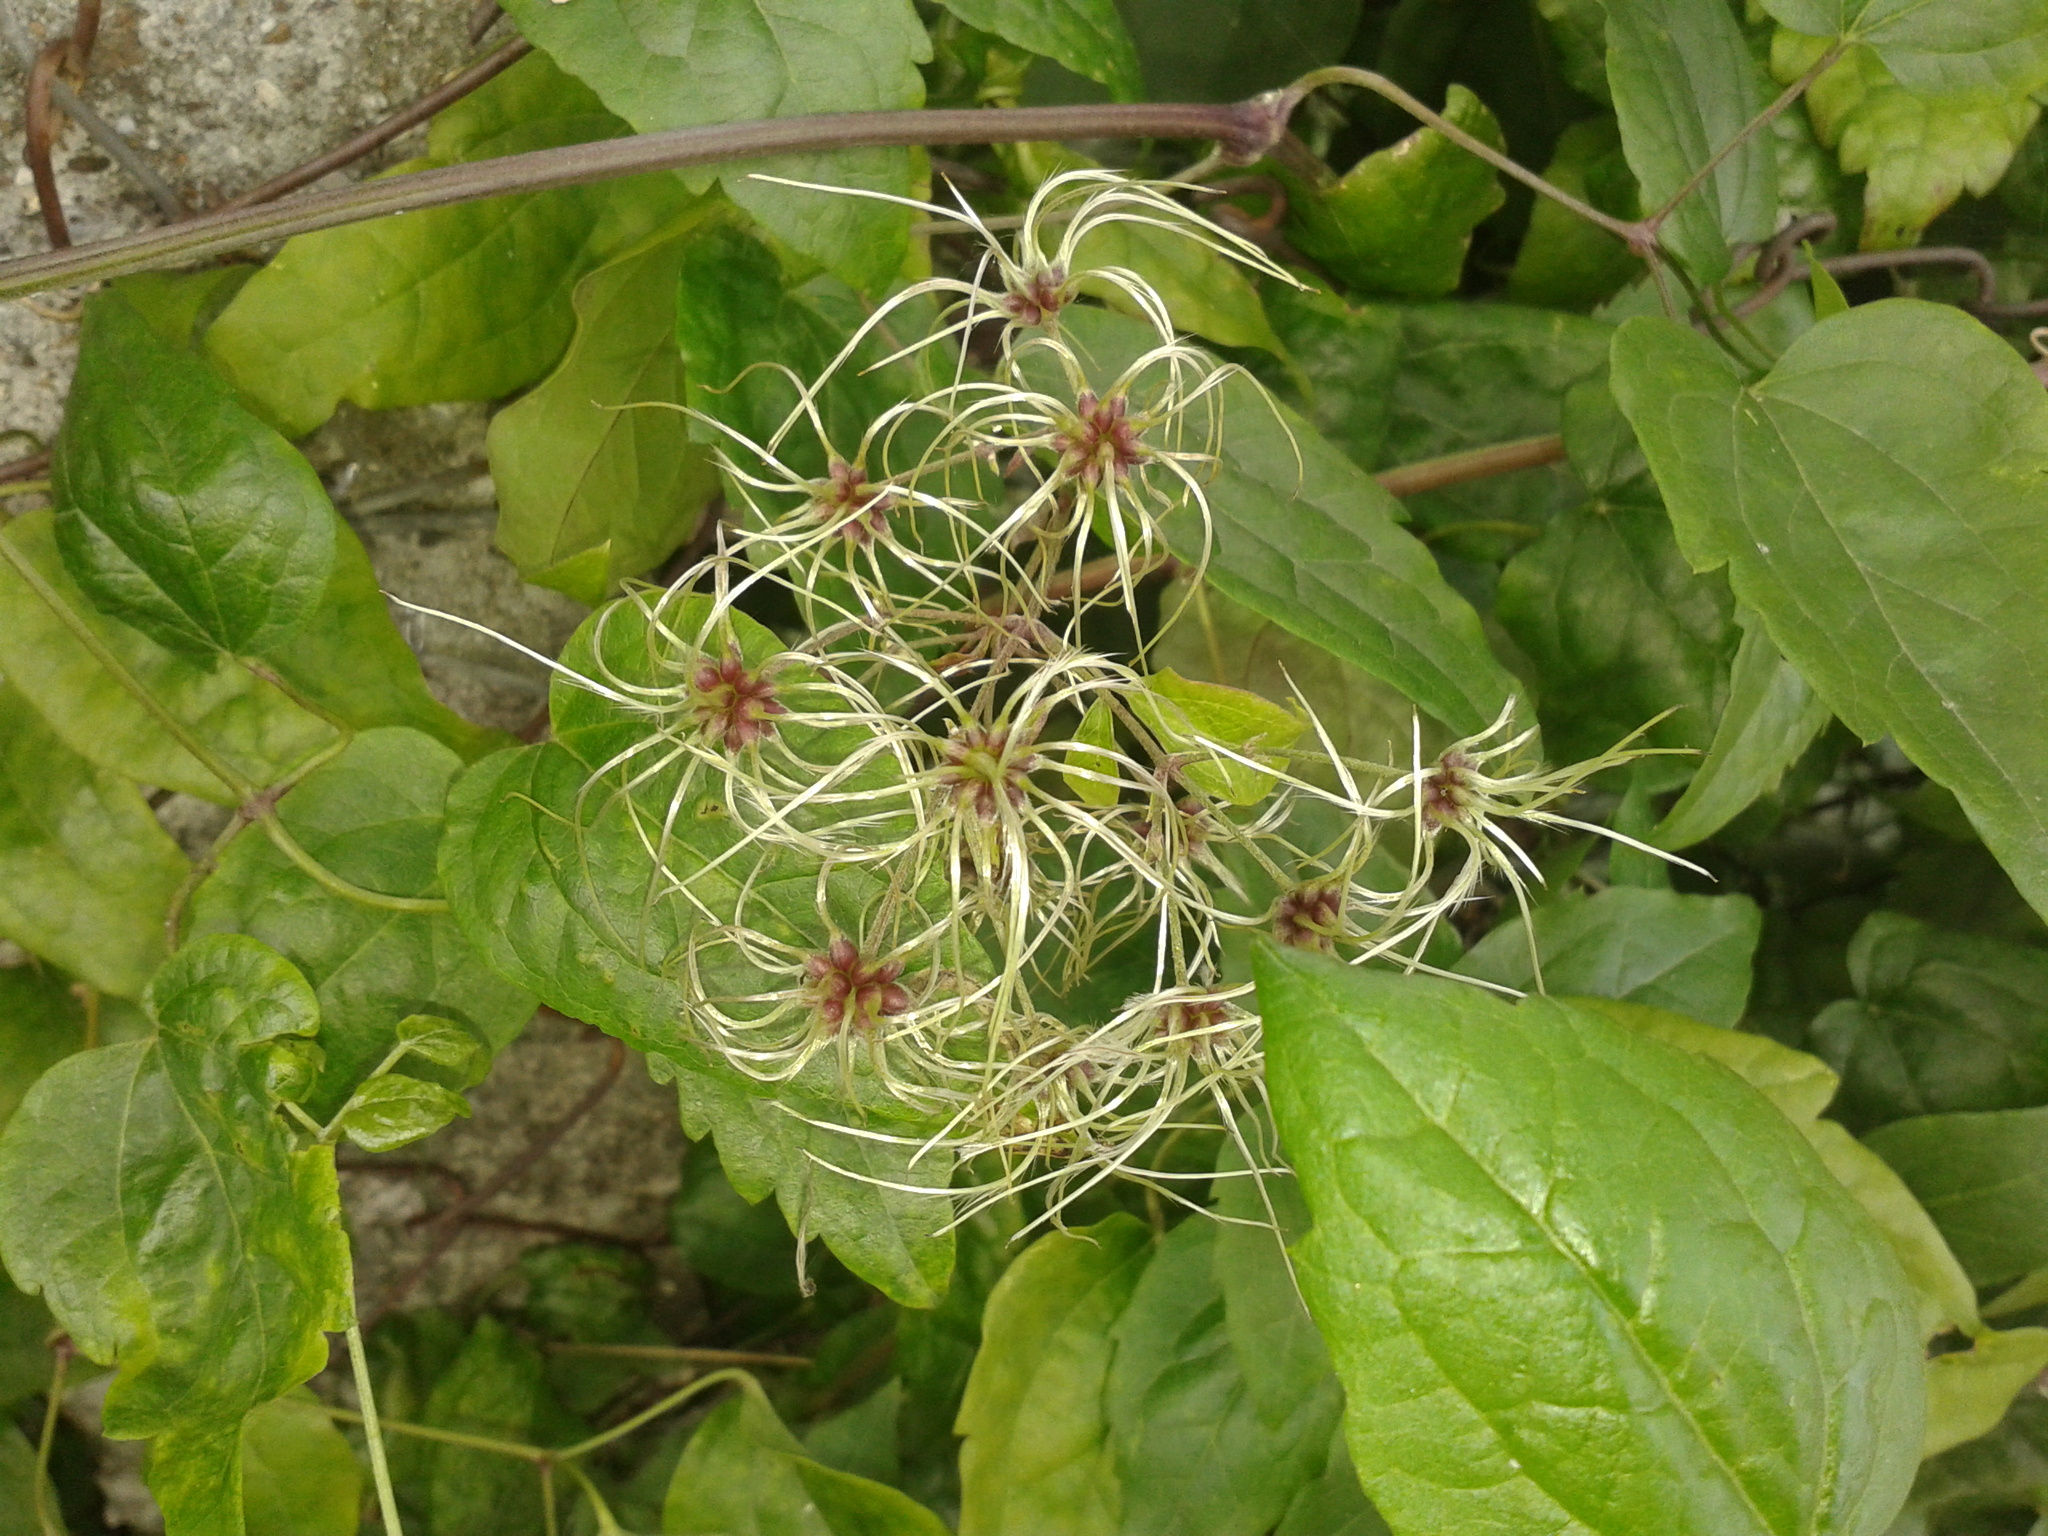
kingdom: Plantae
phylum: Tracheophyta
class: Magnoliopsida
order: Ranunculales
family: Ranunculaceae
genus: Clematis
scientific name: Clematis vitalba
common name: Evergreen clematis
